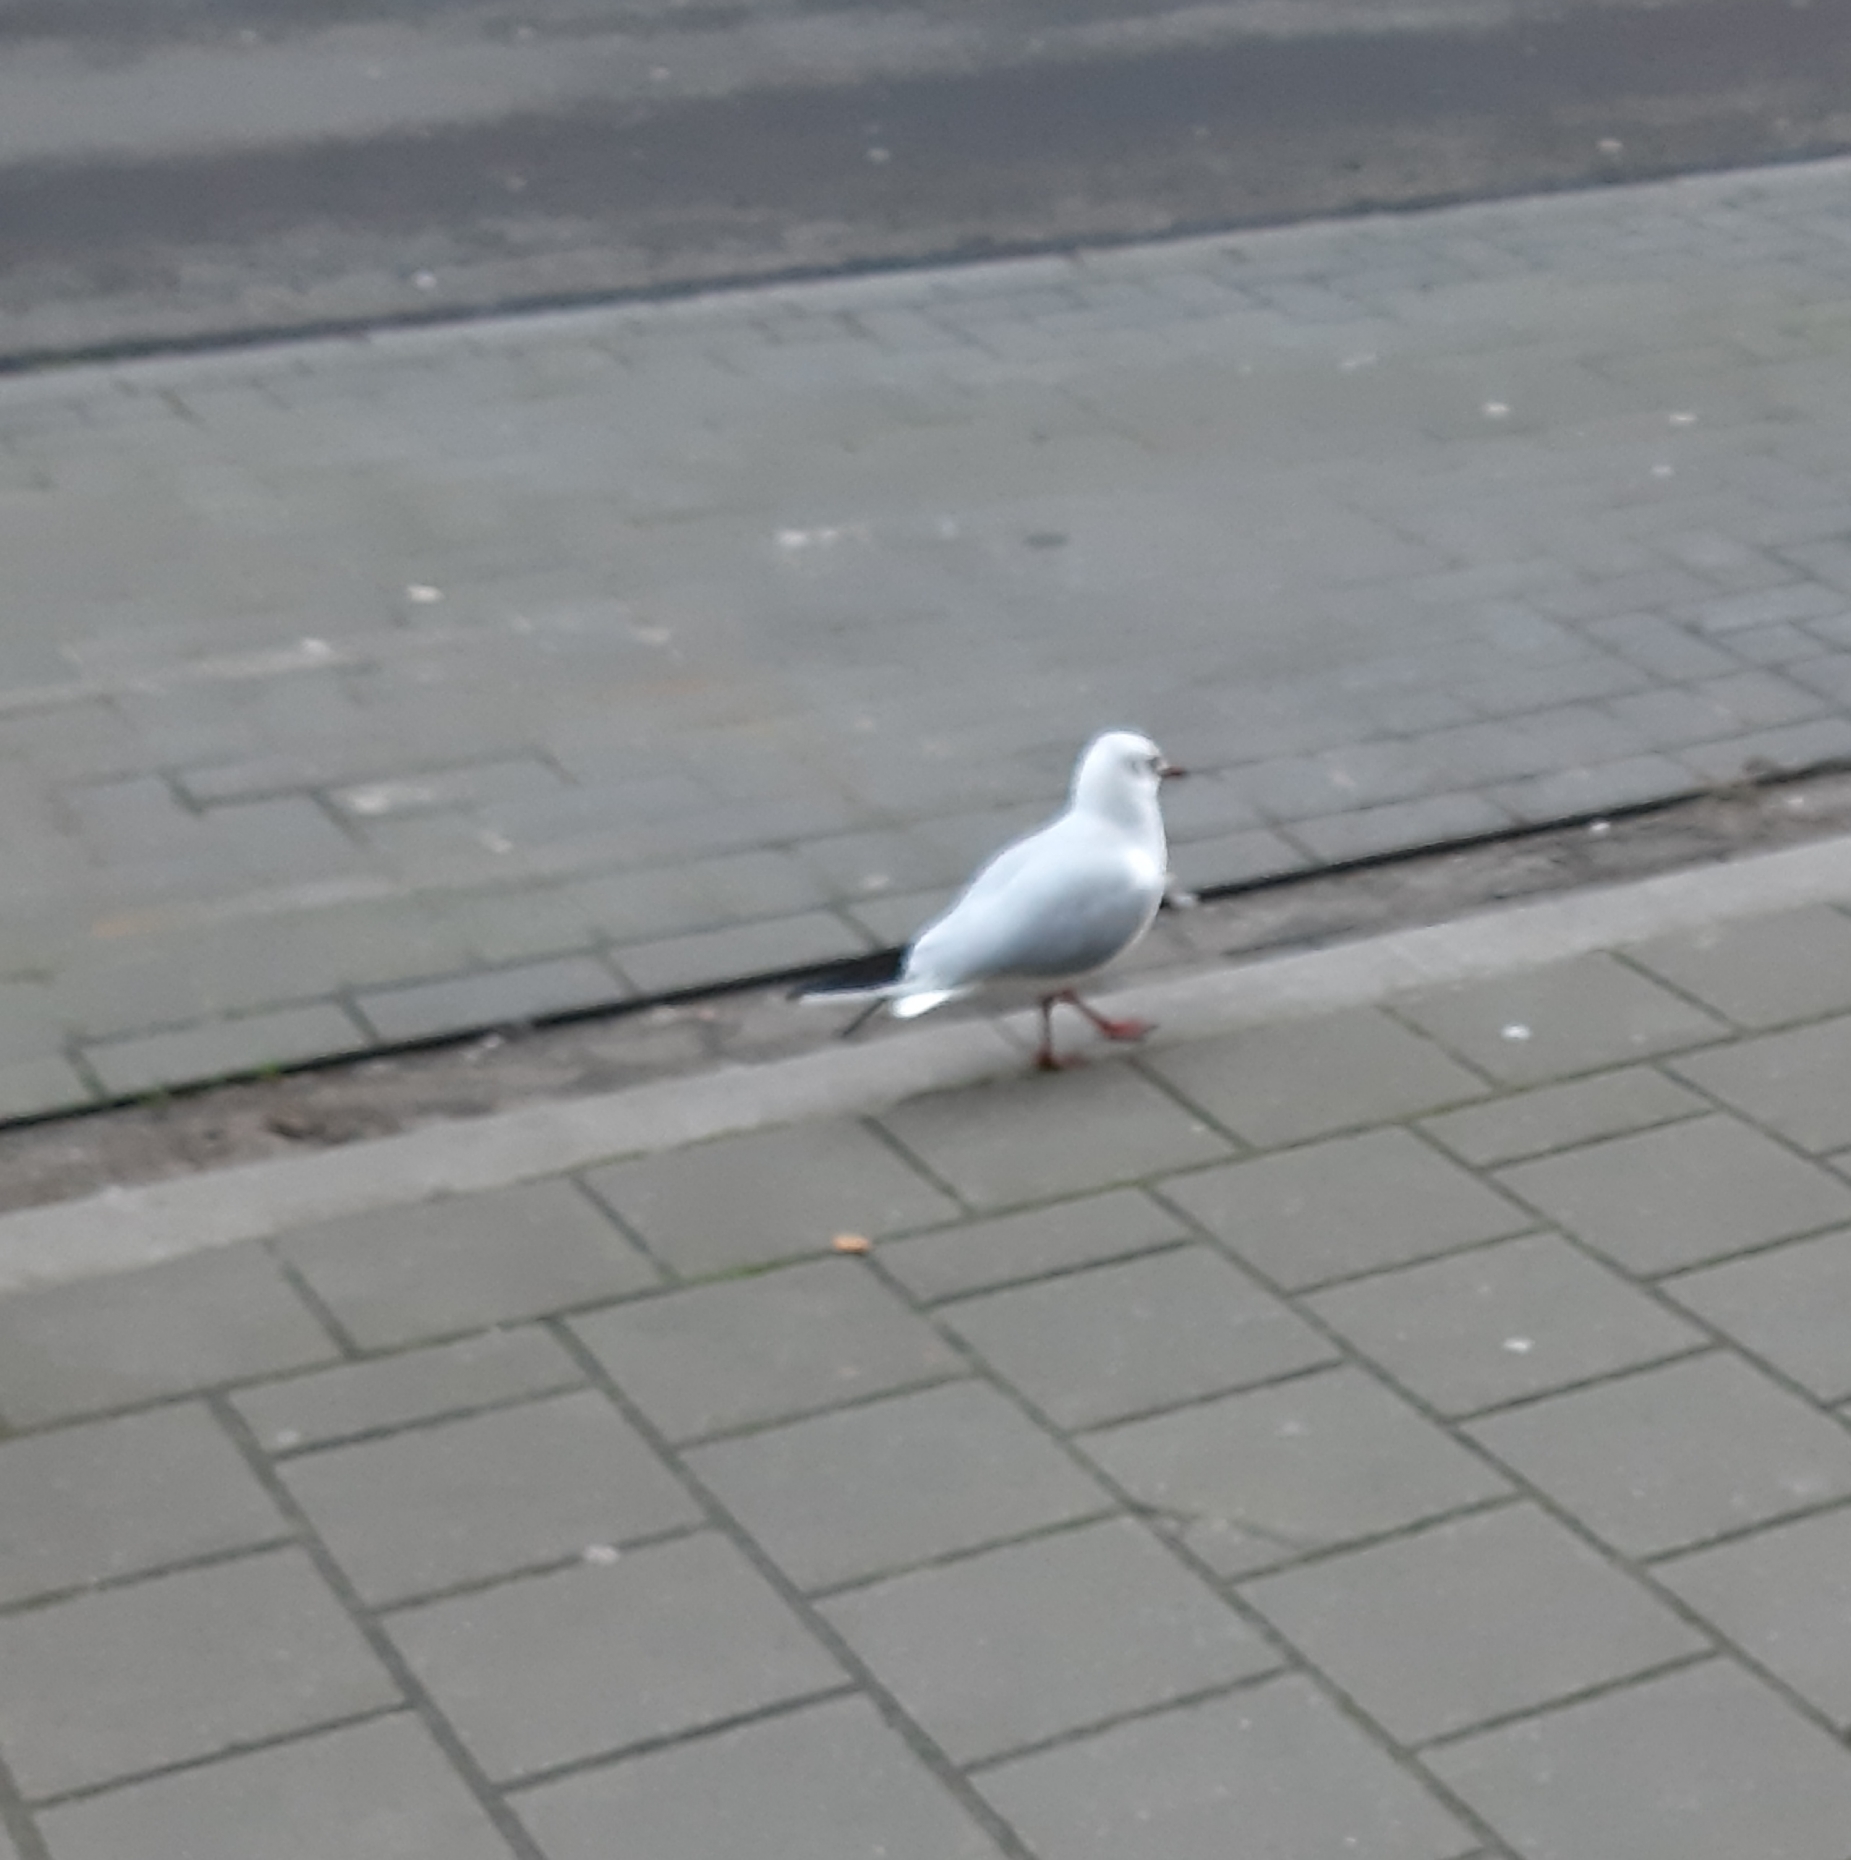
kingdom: Animalia
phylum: Chordata
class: Aves
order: Charadriiformes
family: Laridae
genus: Chroicocephalus
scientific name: Chroicocephalus ridibundus
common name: Black-headed gull
